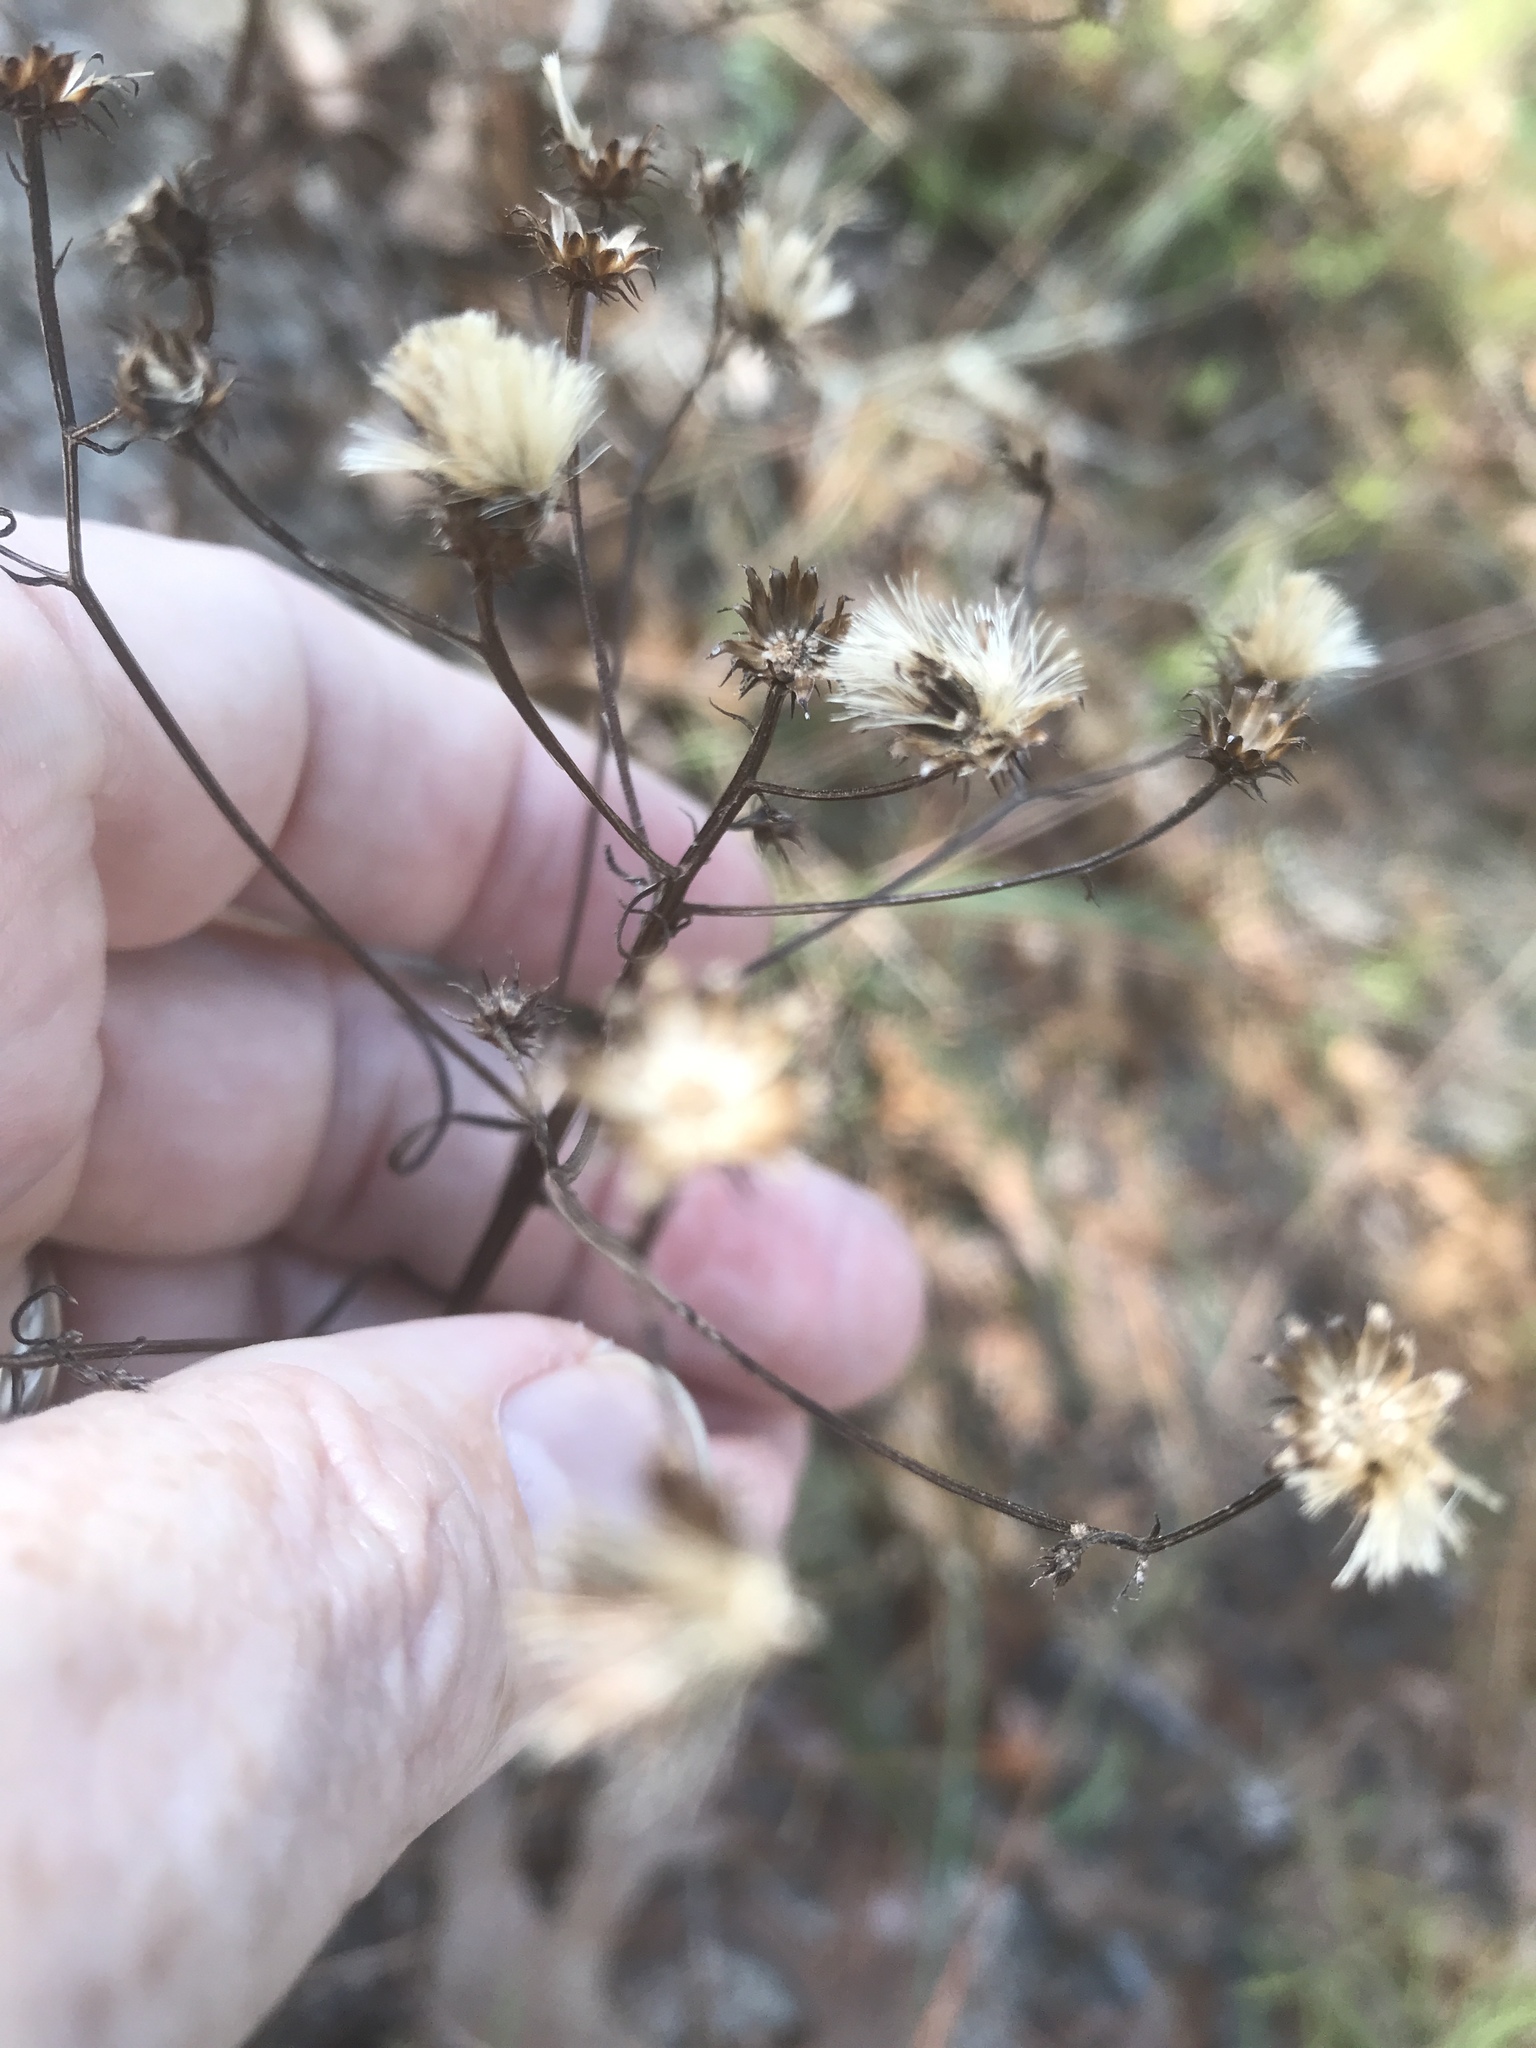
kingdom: Plantae
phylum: Tracheophyta
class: Magnoliopsida
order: Asterales
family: Asteraceae
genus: Vernonia
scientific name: Vernonia angustifolia
